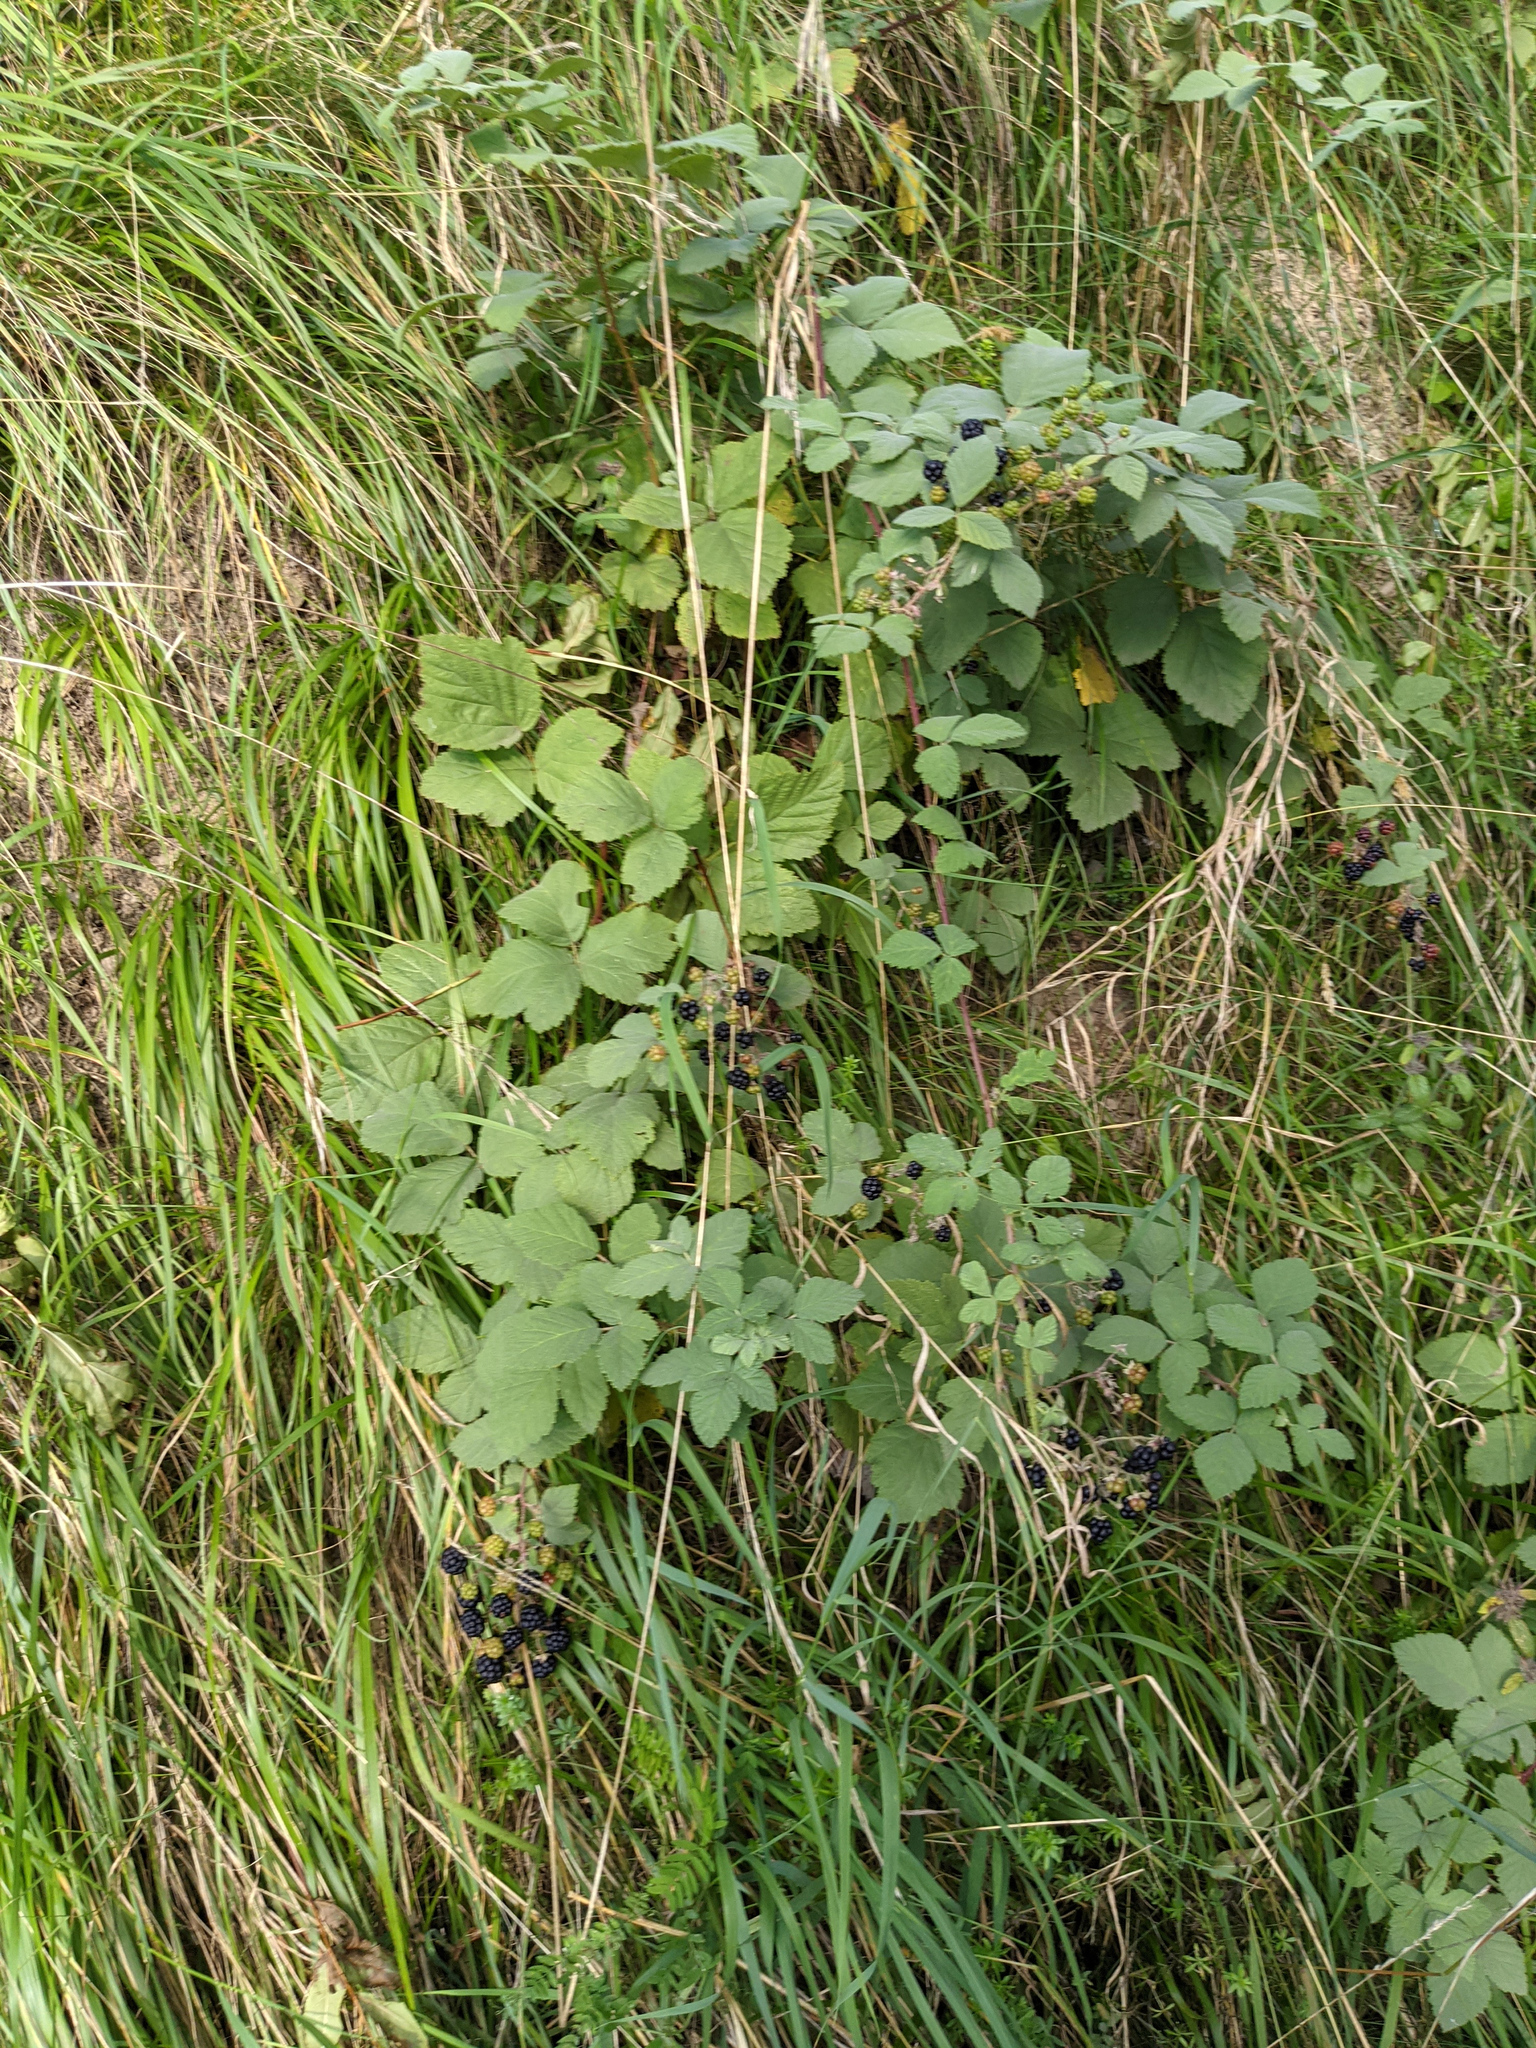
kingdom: Plantae
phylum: Tracheophyta
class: Magnoliopsida
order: Rosales
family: Rosaceae
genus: Rubus
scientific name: Rubus
